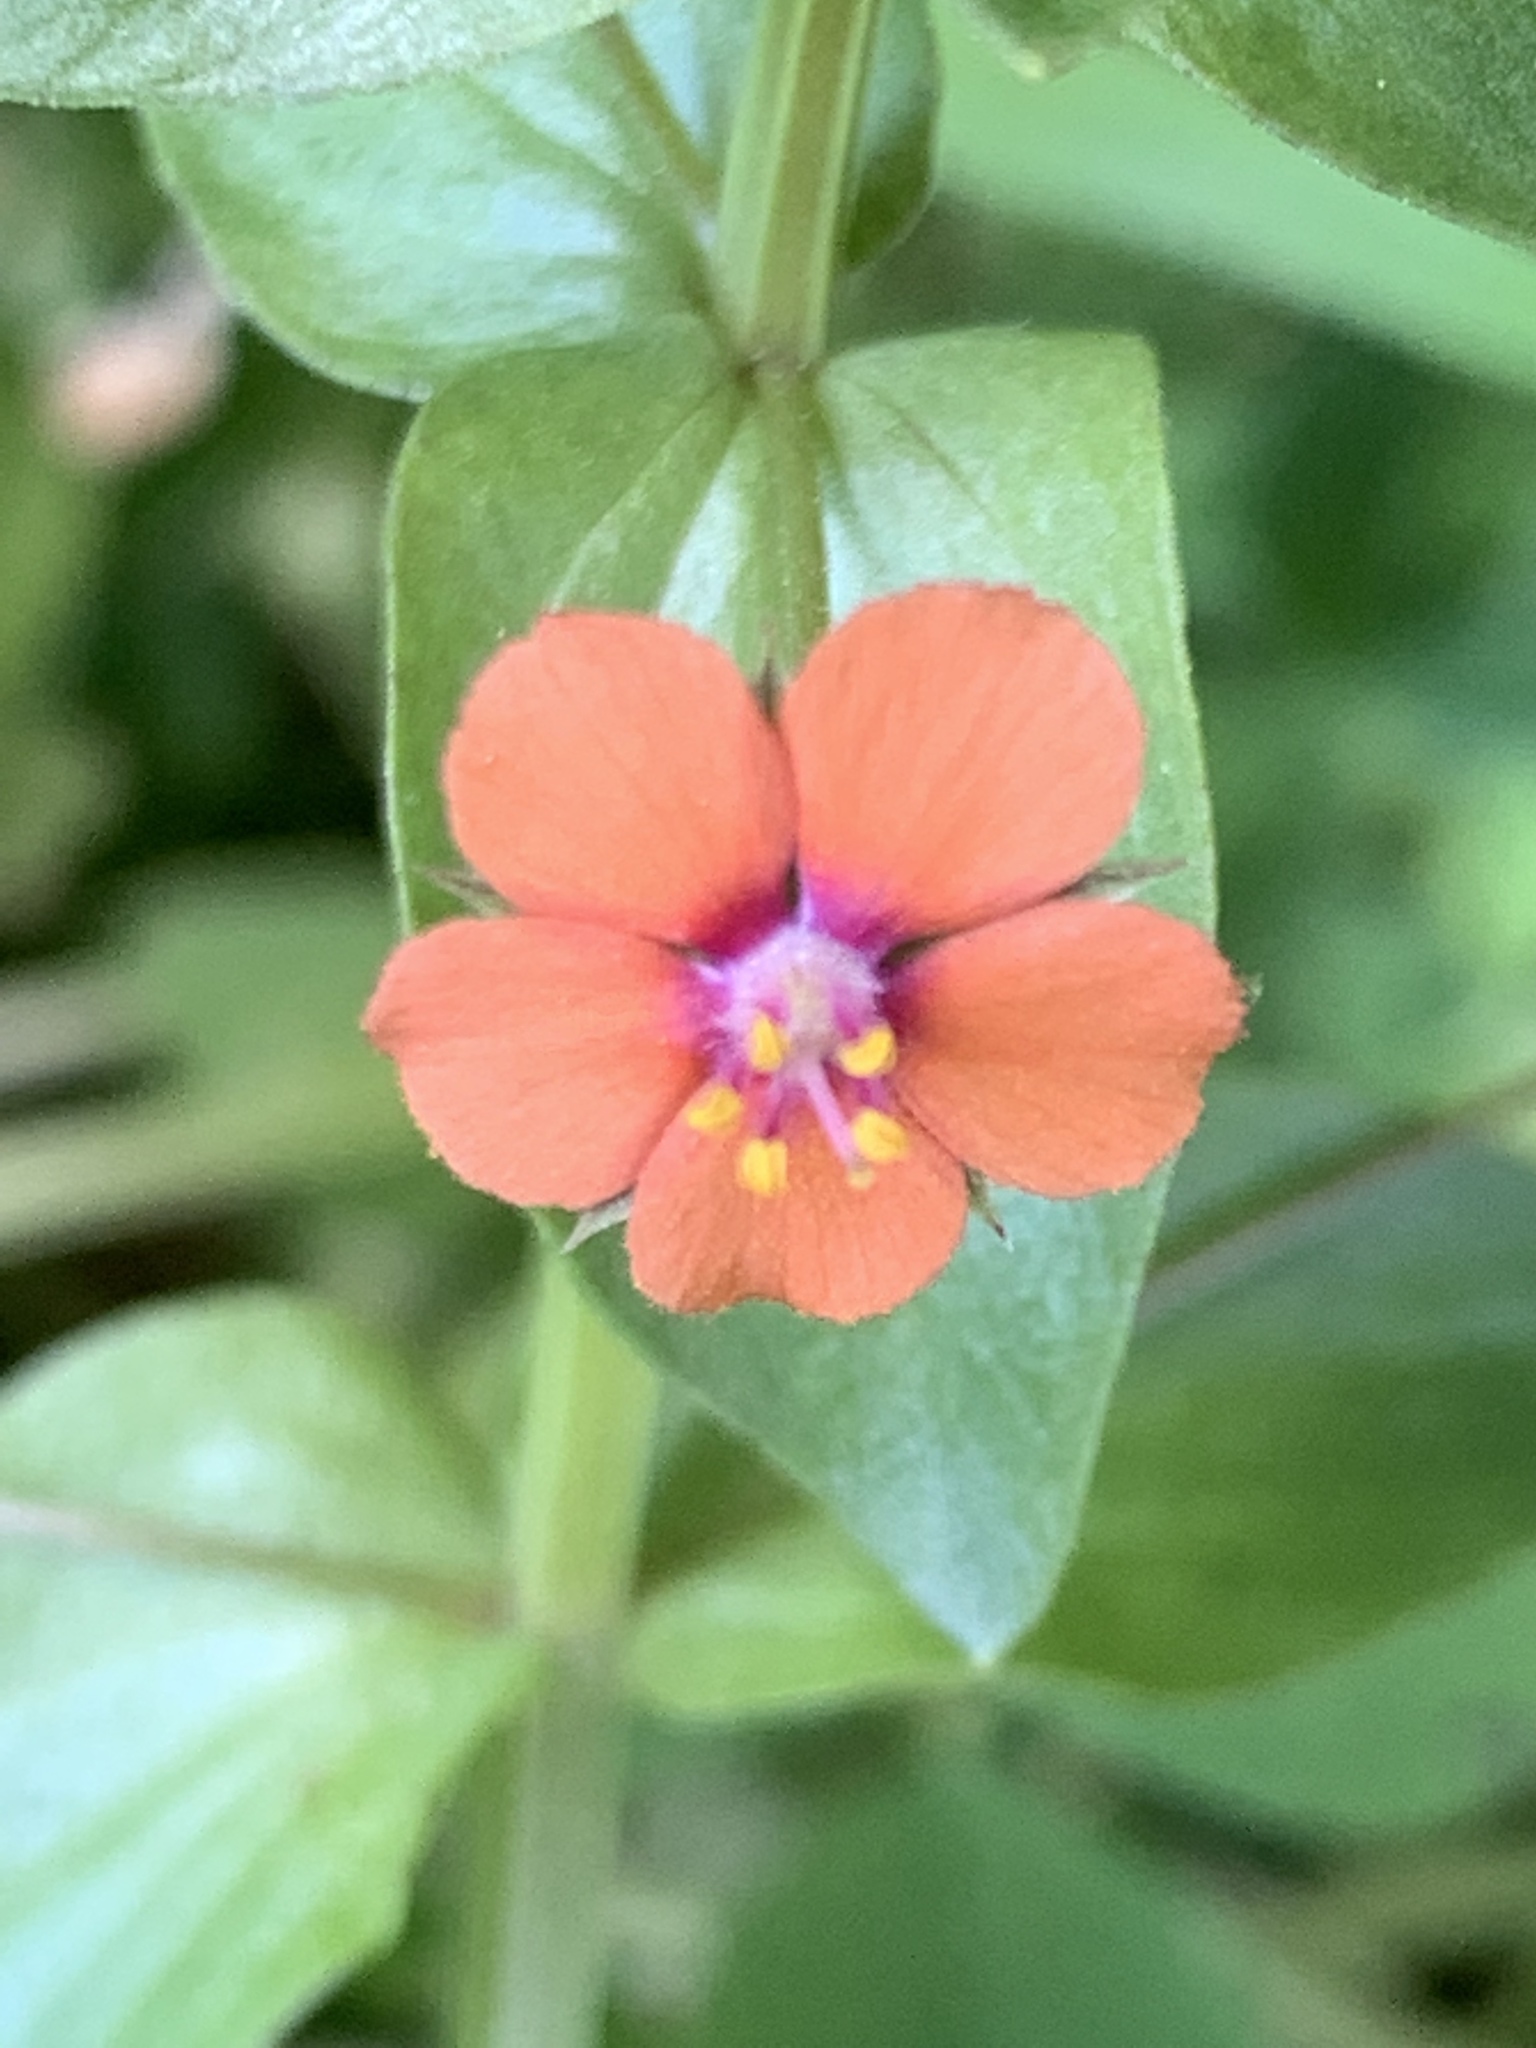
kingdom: Plantae
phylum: Tracheophyta
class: Magnoliopsida
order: Ericales
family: Primulaceae
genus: Lysimachia
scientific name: Lysimachia arvensis
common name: Scarlet pimpernel
